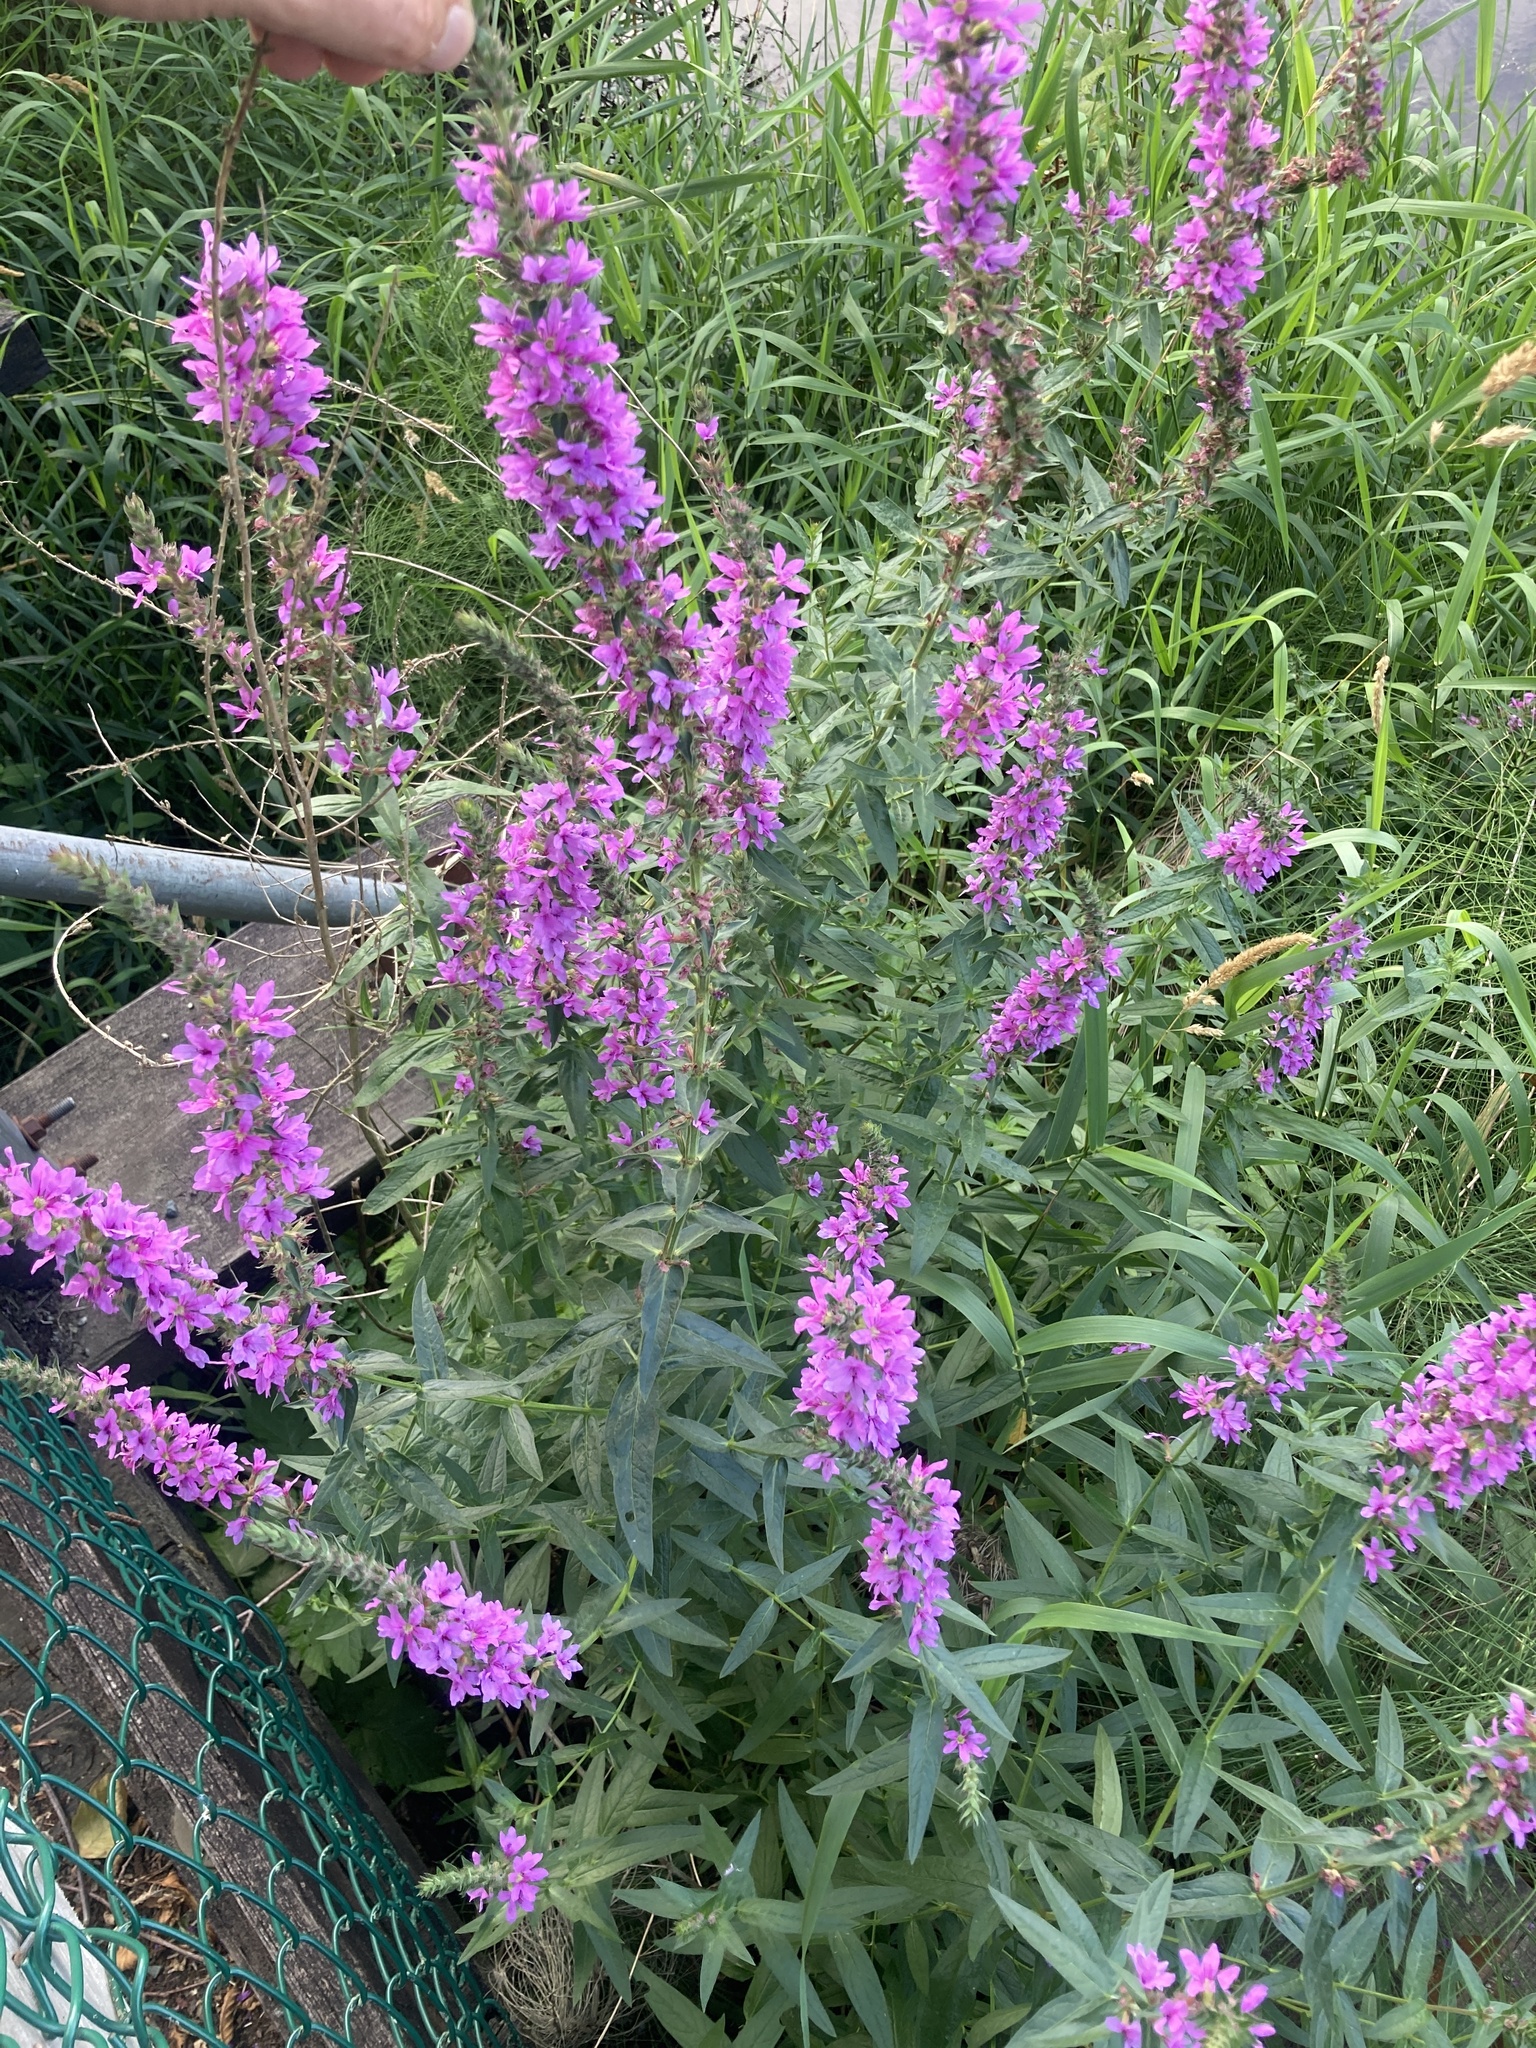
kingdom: Plantae
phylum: Tracheophyta
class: Magnoliopsida
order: Myrtales
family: Lythraceae
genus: Lythrum
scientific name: Lythrum salicaria
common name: Purple loosestrife
